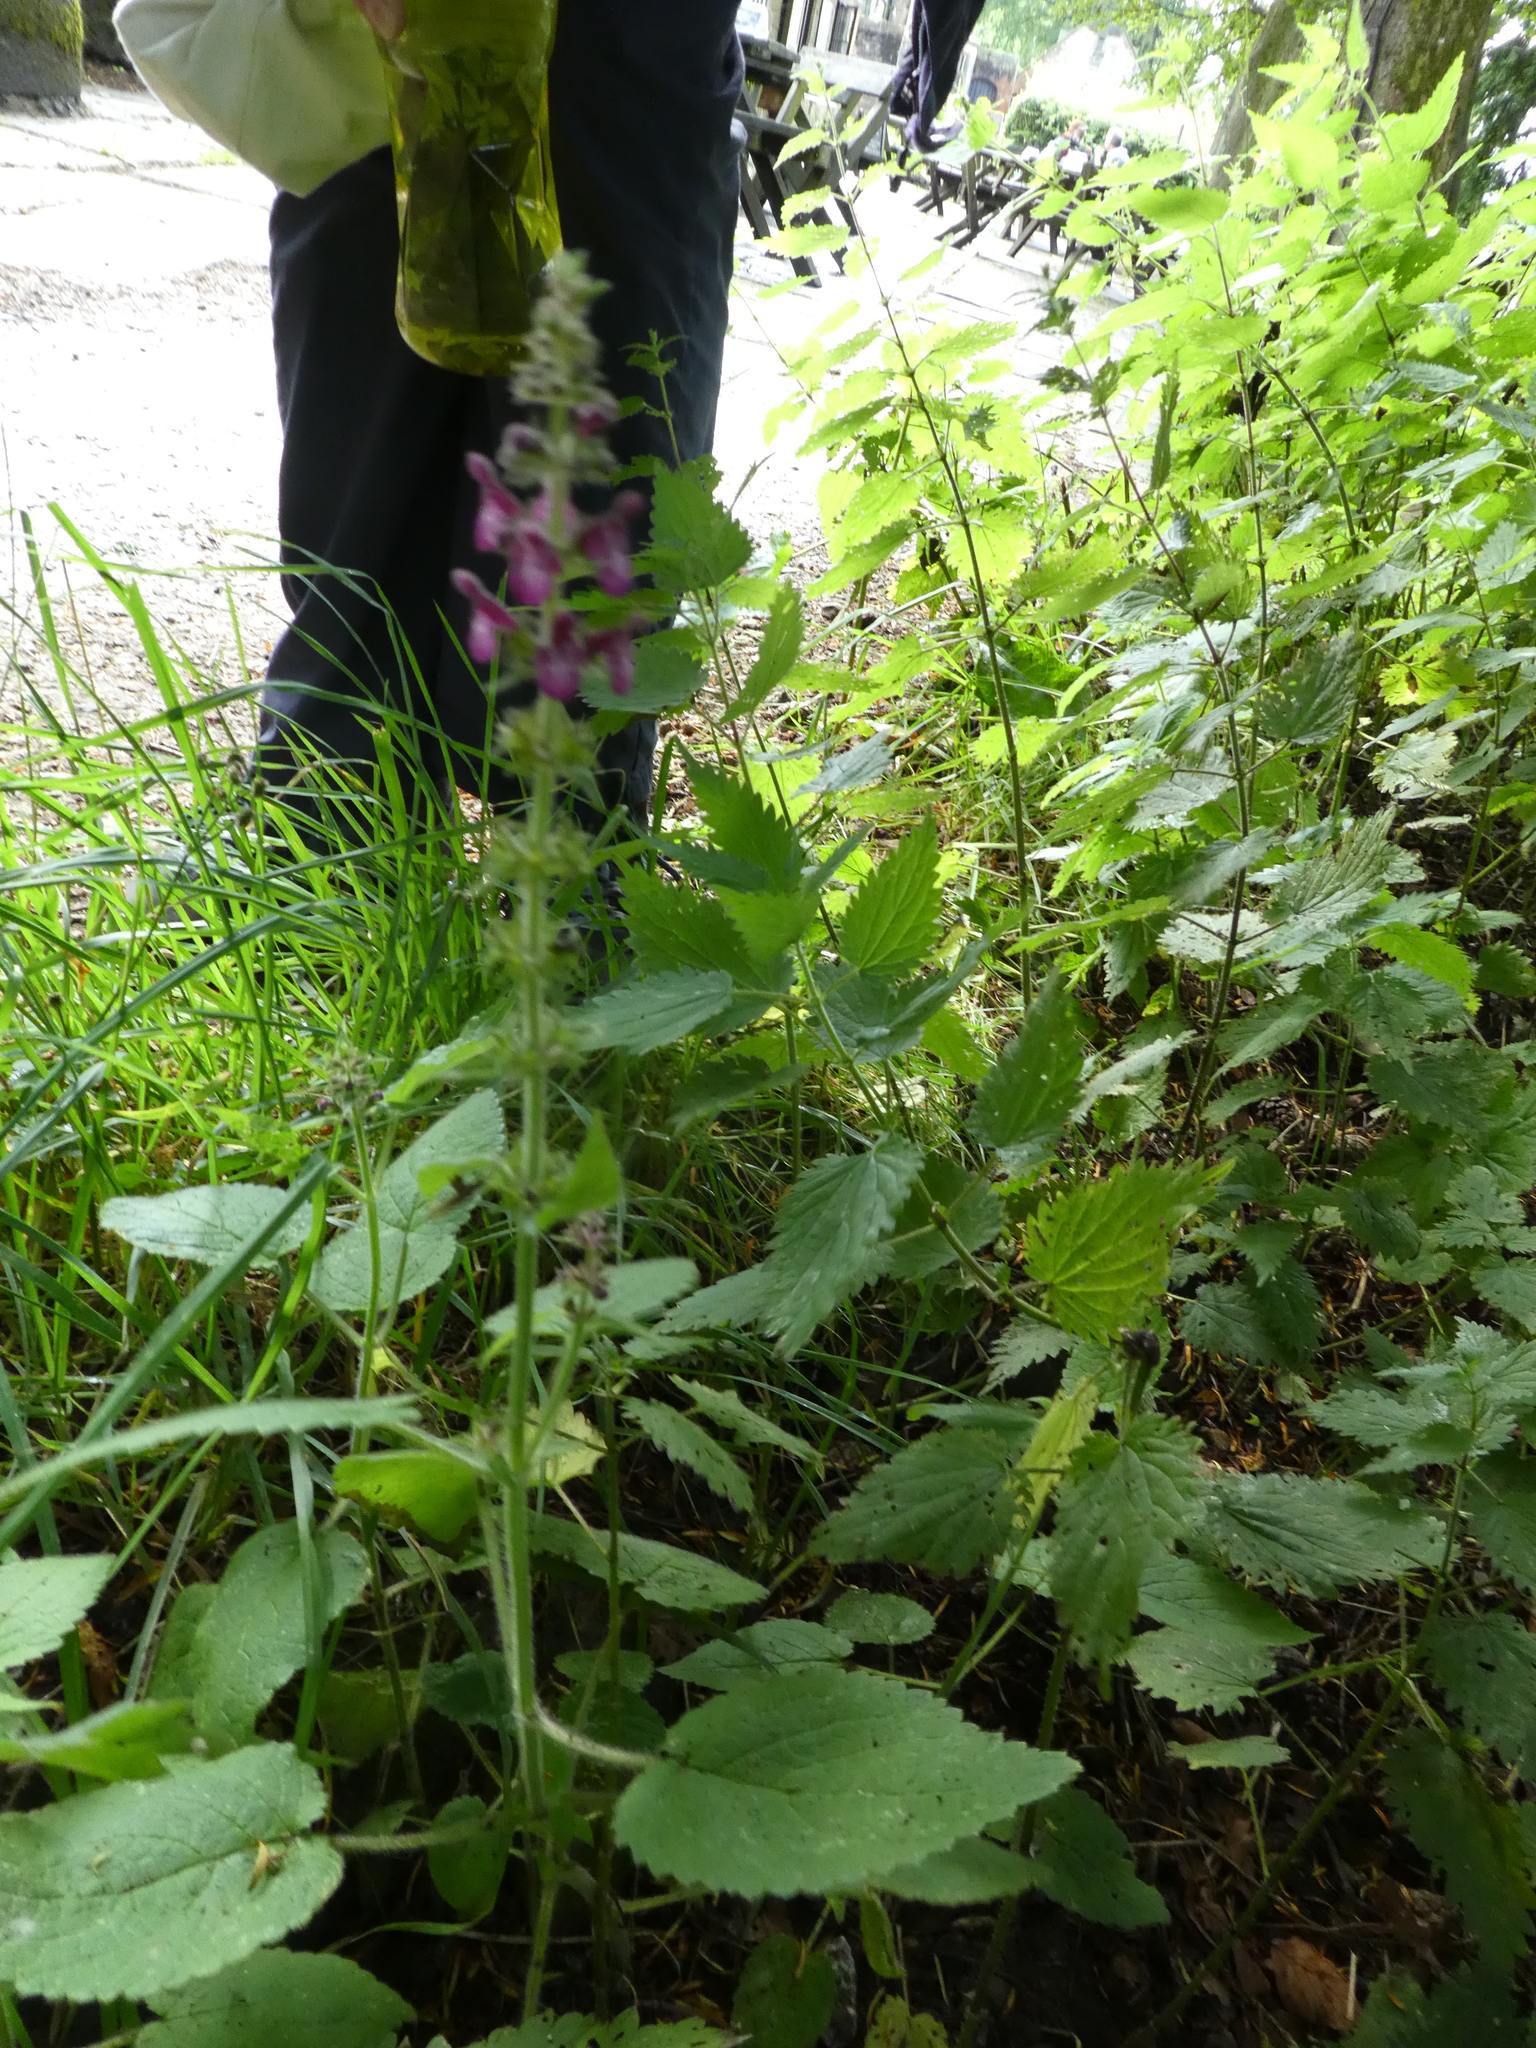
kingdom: Plantae
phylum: Tracheophyta
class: Magnoliopsida
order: Lamiales
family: Lamiaceae
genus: Stachys
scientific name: Stachys sylvatica
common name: Hedge woundwort
